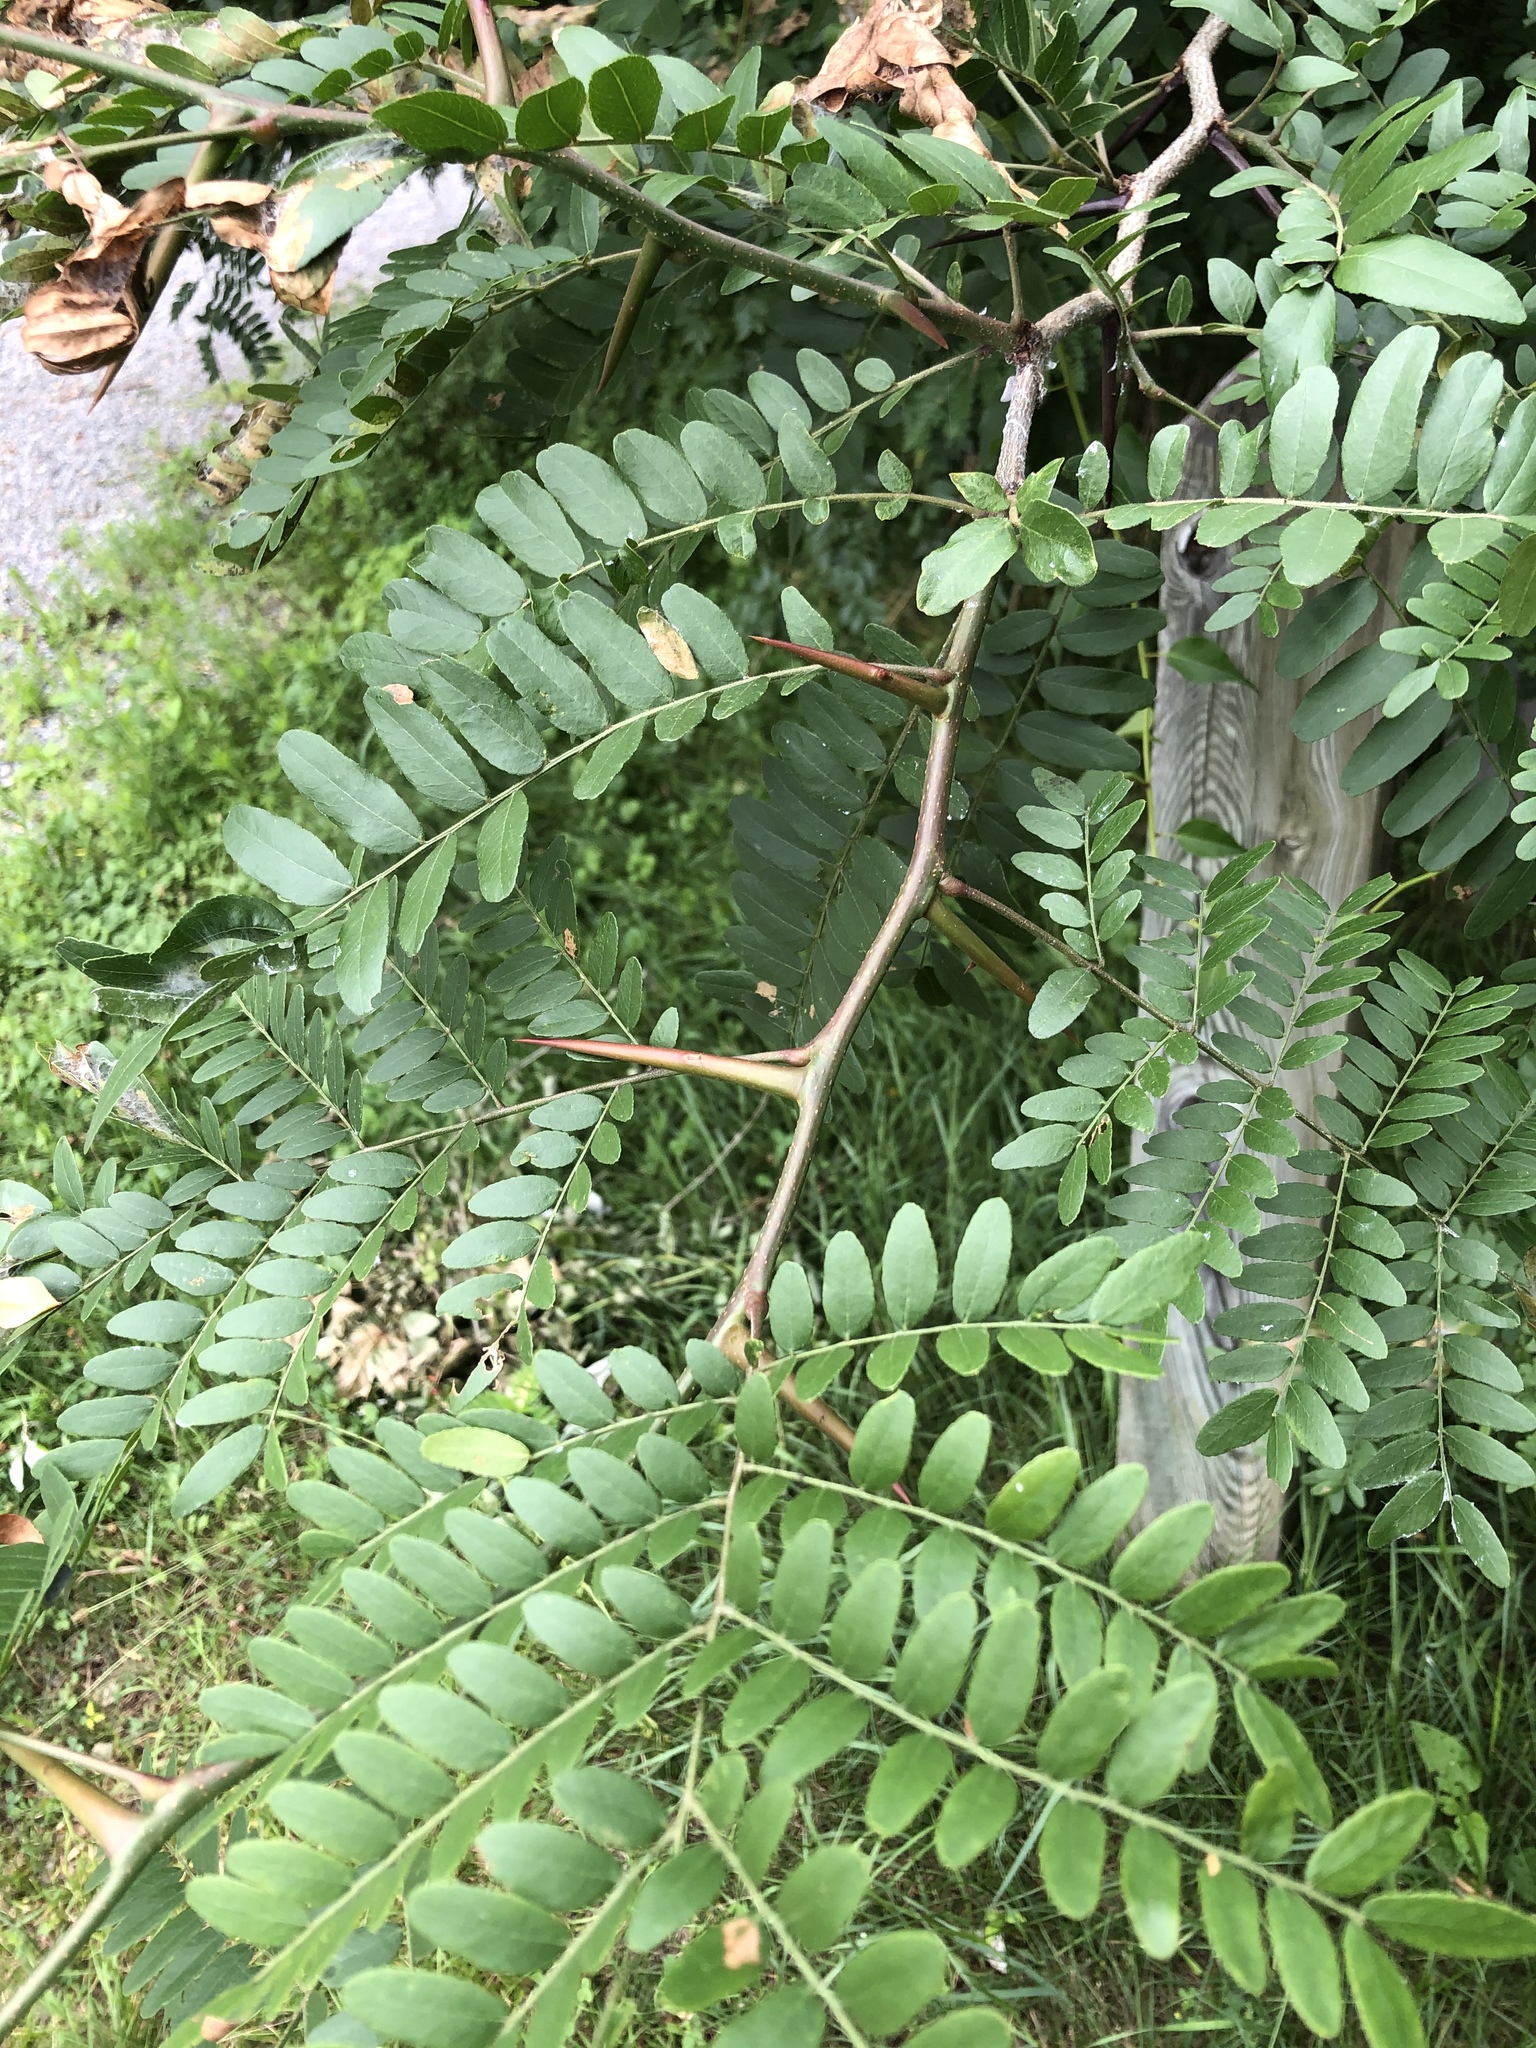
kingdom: Plantae
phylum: Tracheophyta
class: Magnoliopsida
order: Fabales
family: Fabaceae
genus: Gleditsia
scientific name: Gleditsia triacanthos
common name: Common honeylocust
